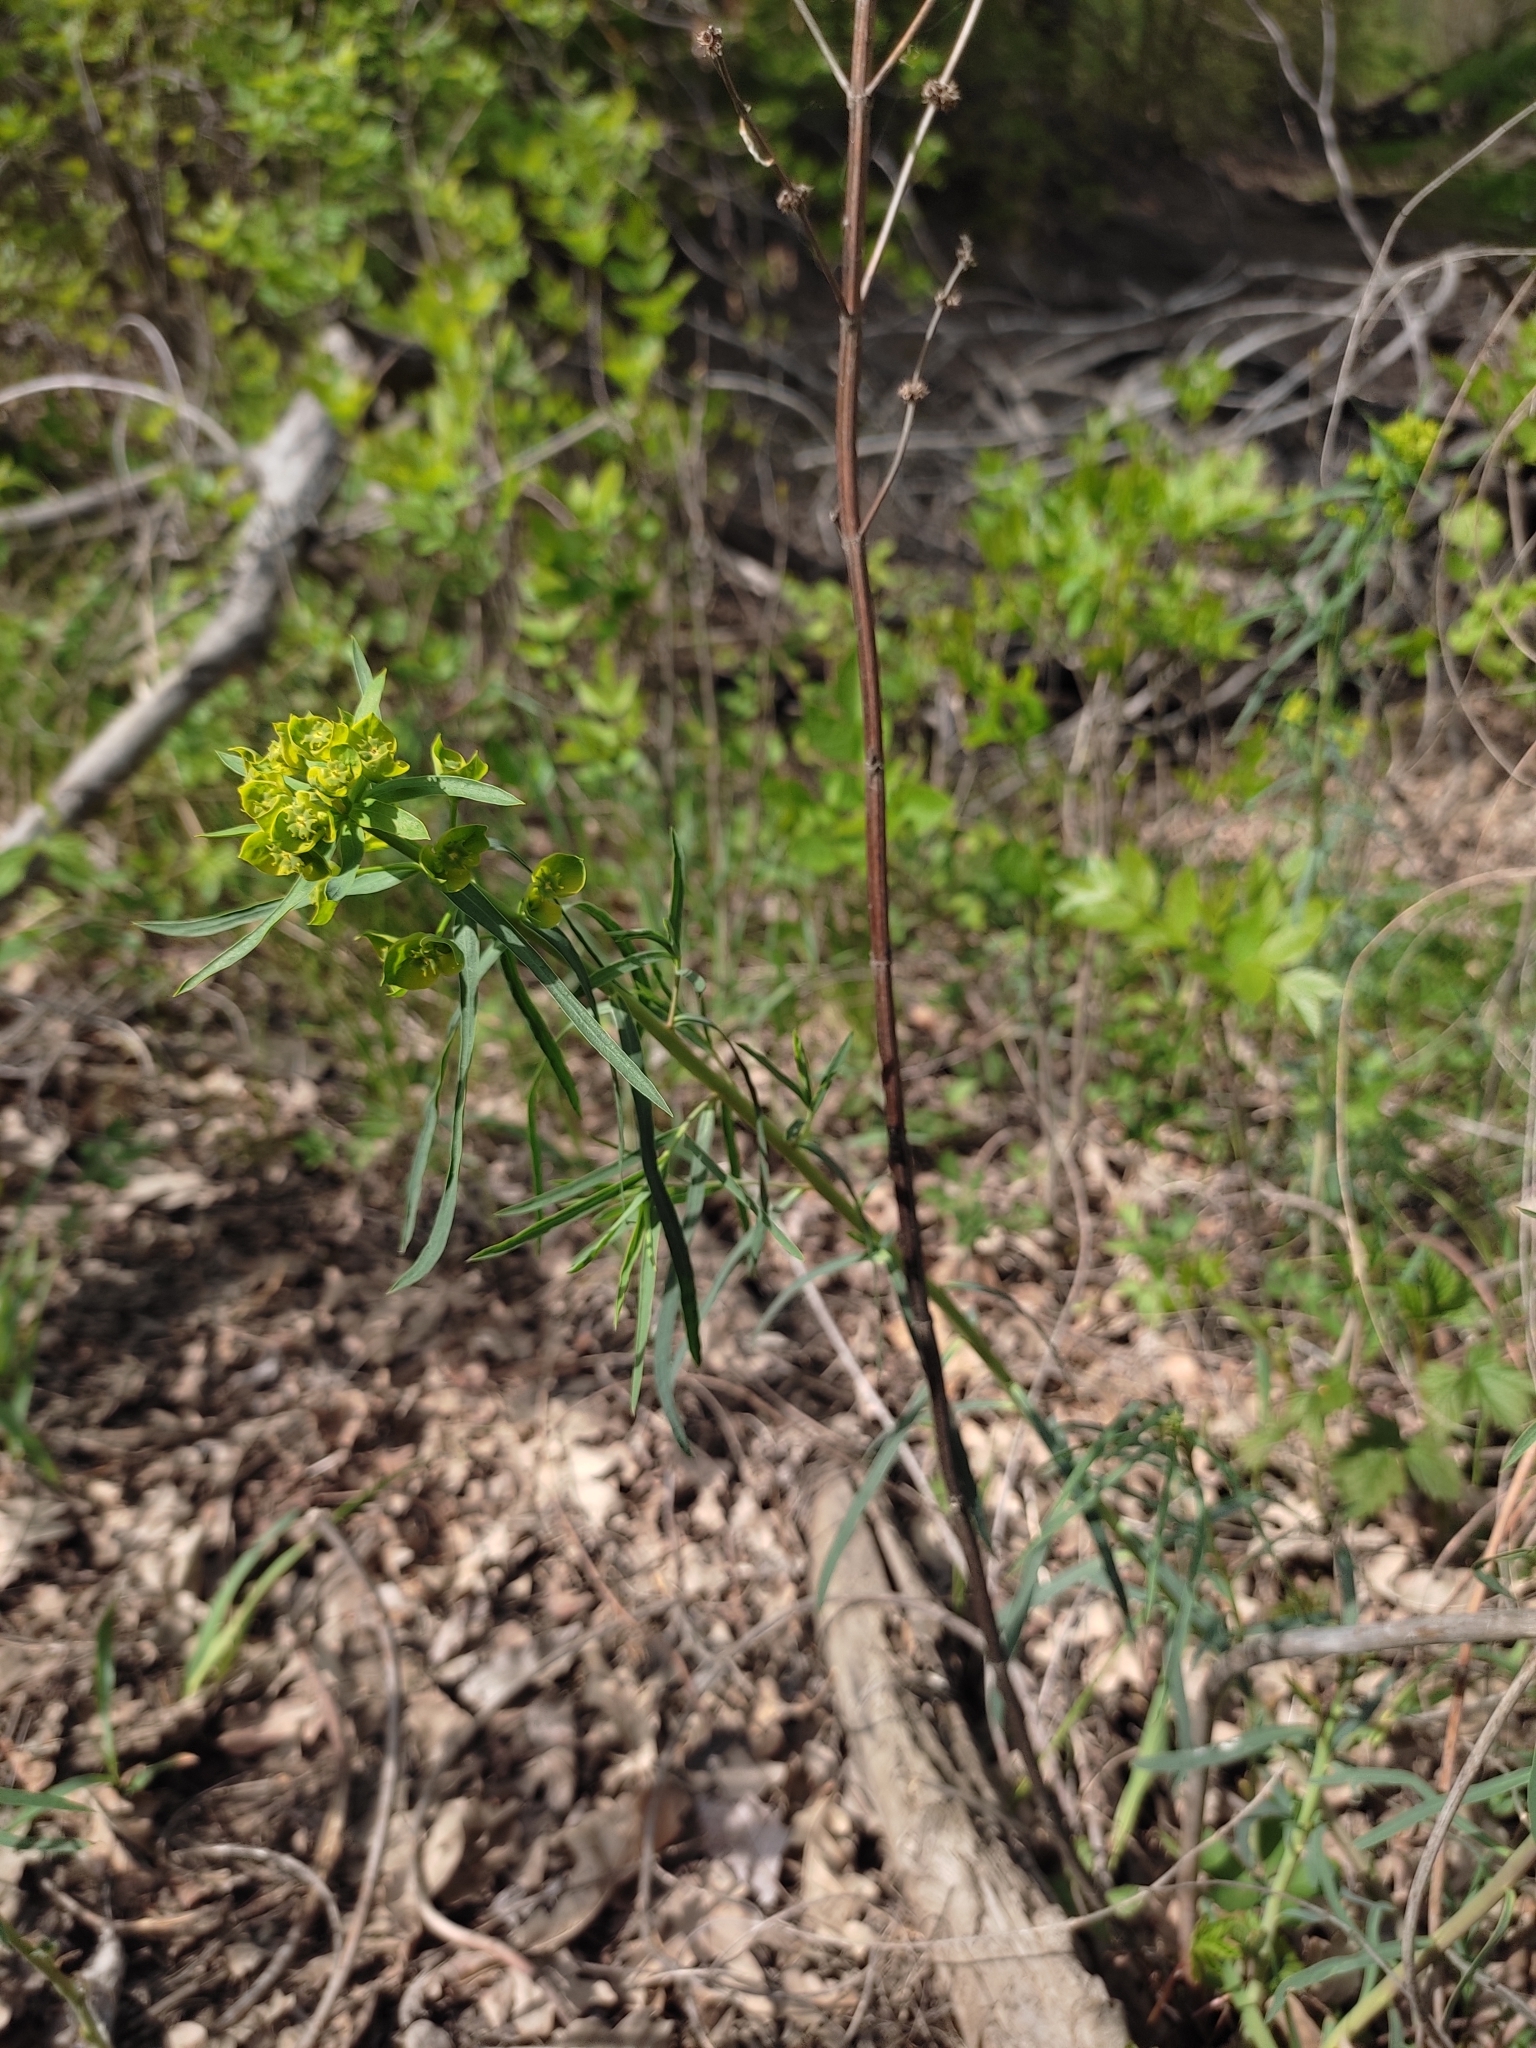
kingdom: Plantae
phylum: Tracheophyta
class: Magnoliopsida
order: Malpighiales
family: Euphorbiaceae
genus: Euphorbia
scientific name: Euphorbia virgata
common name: Leafy spurge
